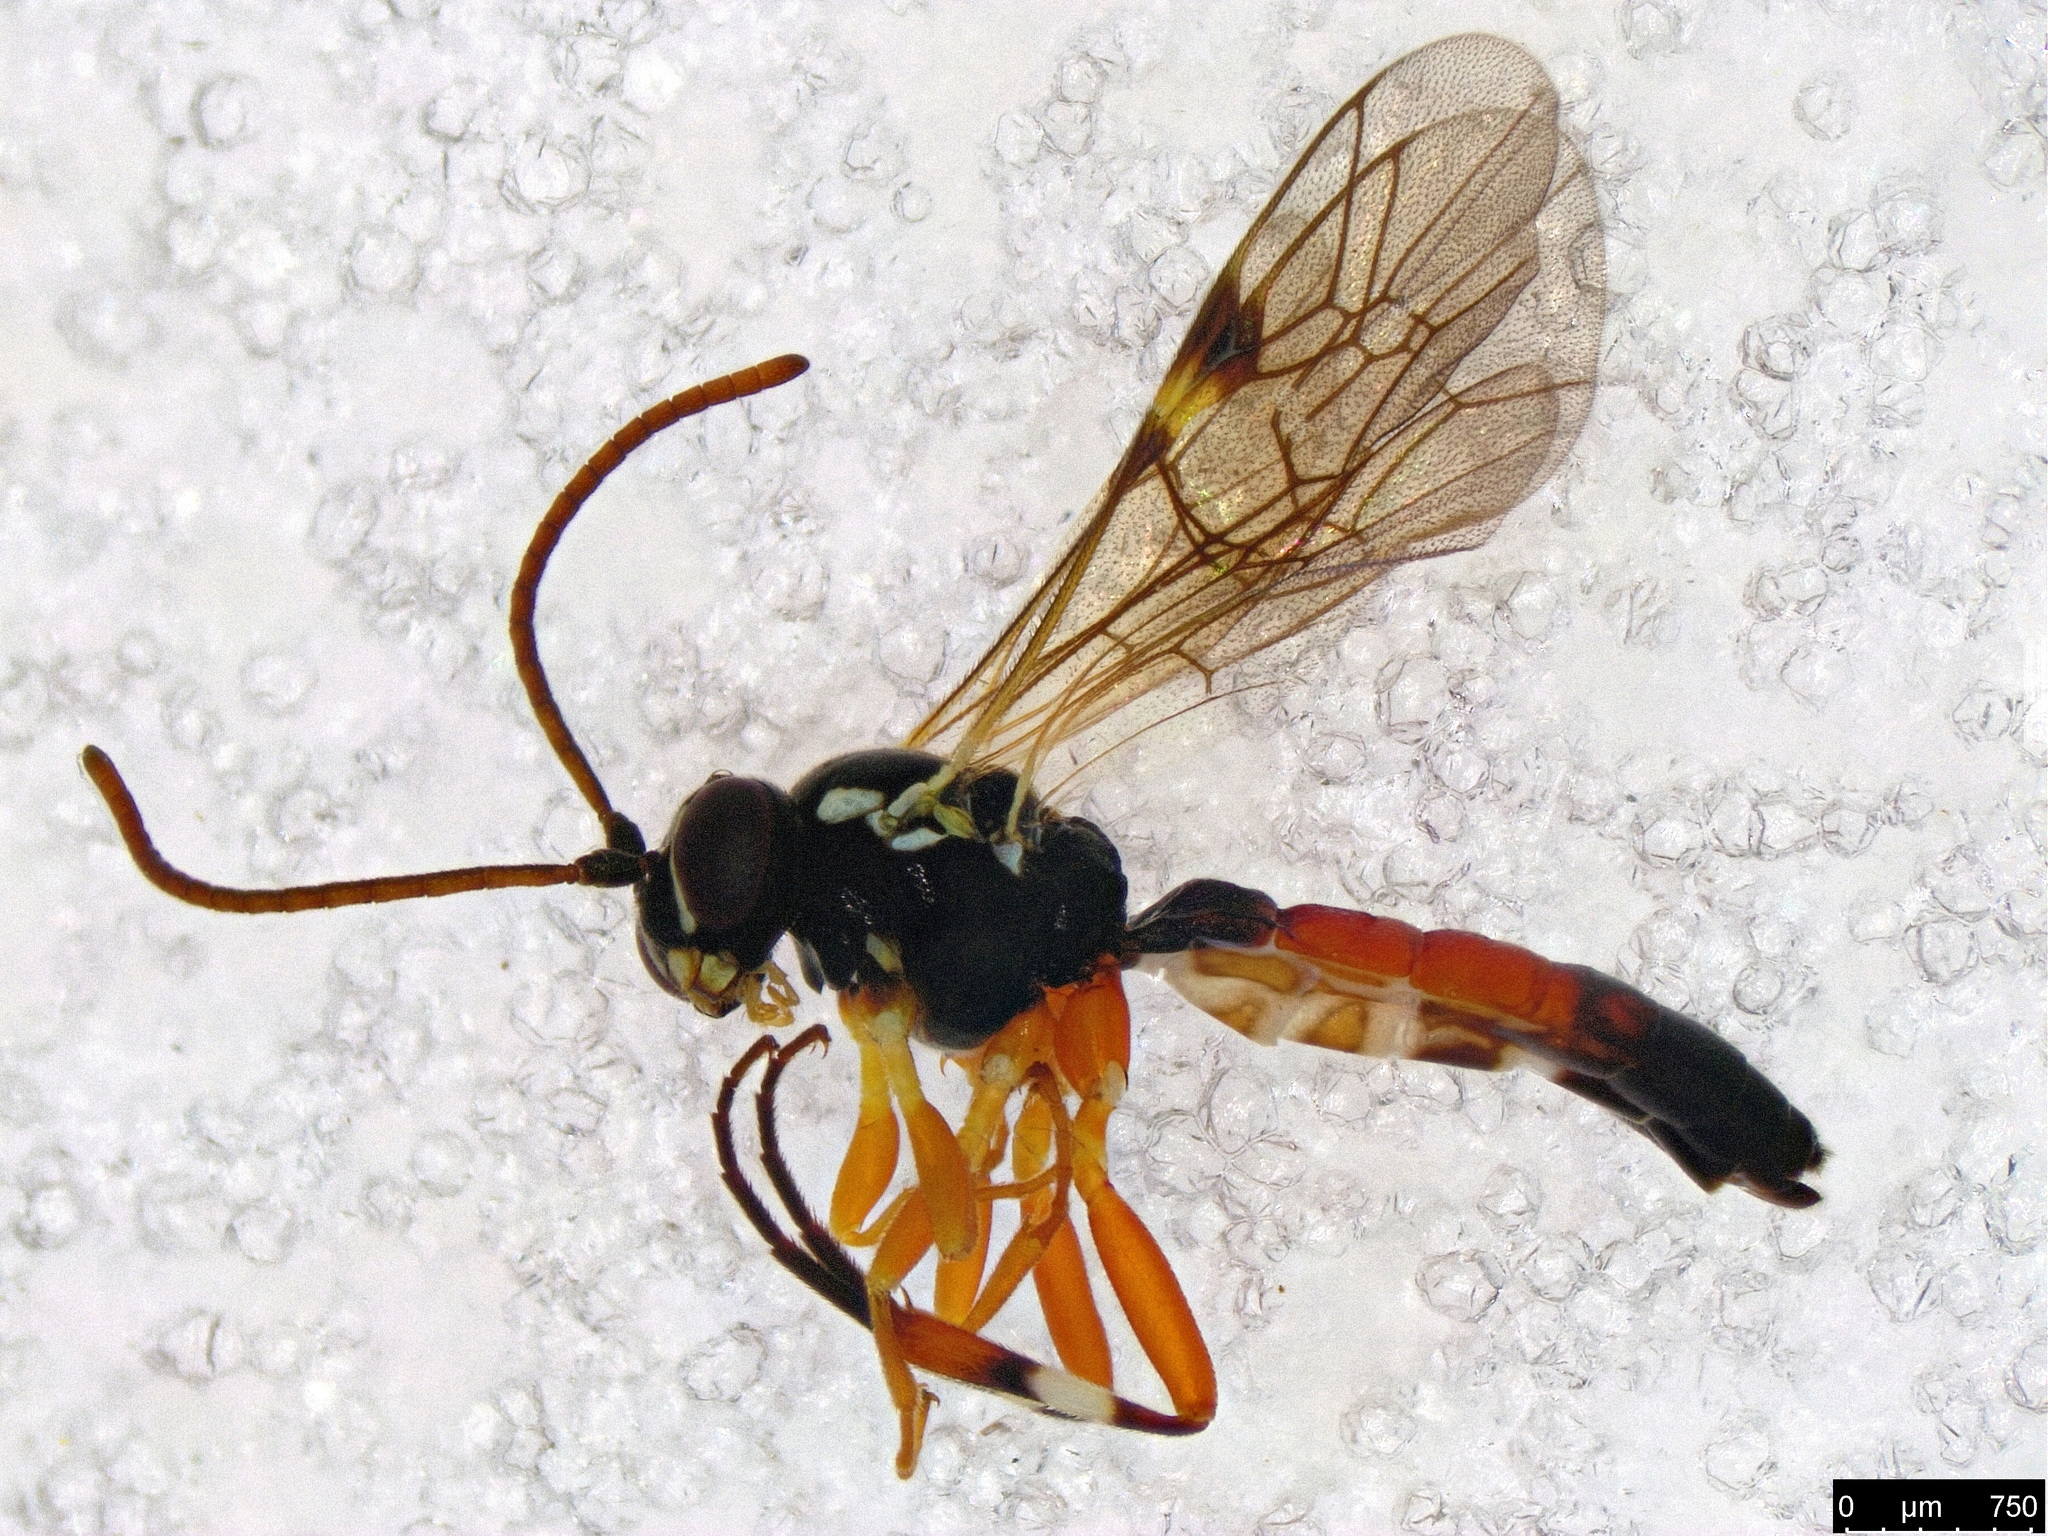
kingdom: Animalia
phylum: Arthropoda
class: Insecta
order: Hymenoptera
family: Ichneumonidae
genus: Diplazon
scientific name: Diplazon laetatorius
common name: Parasitoid wasp
